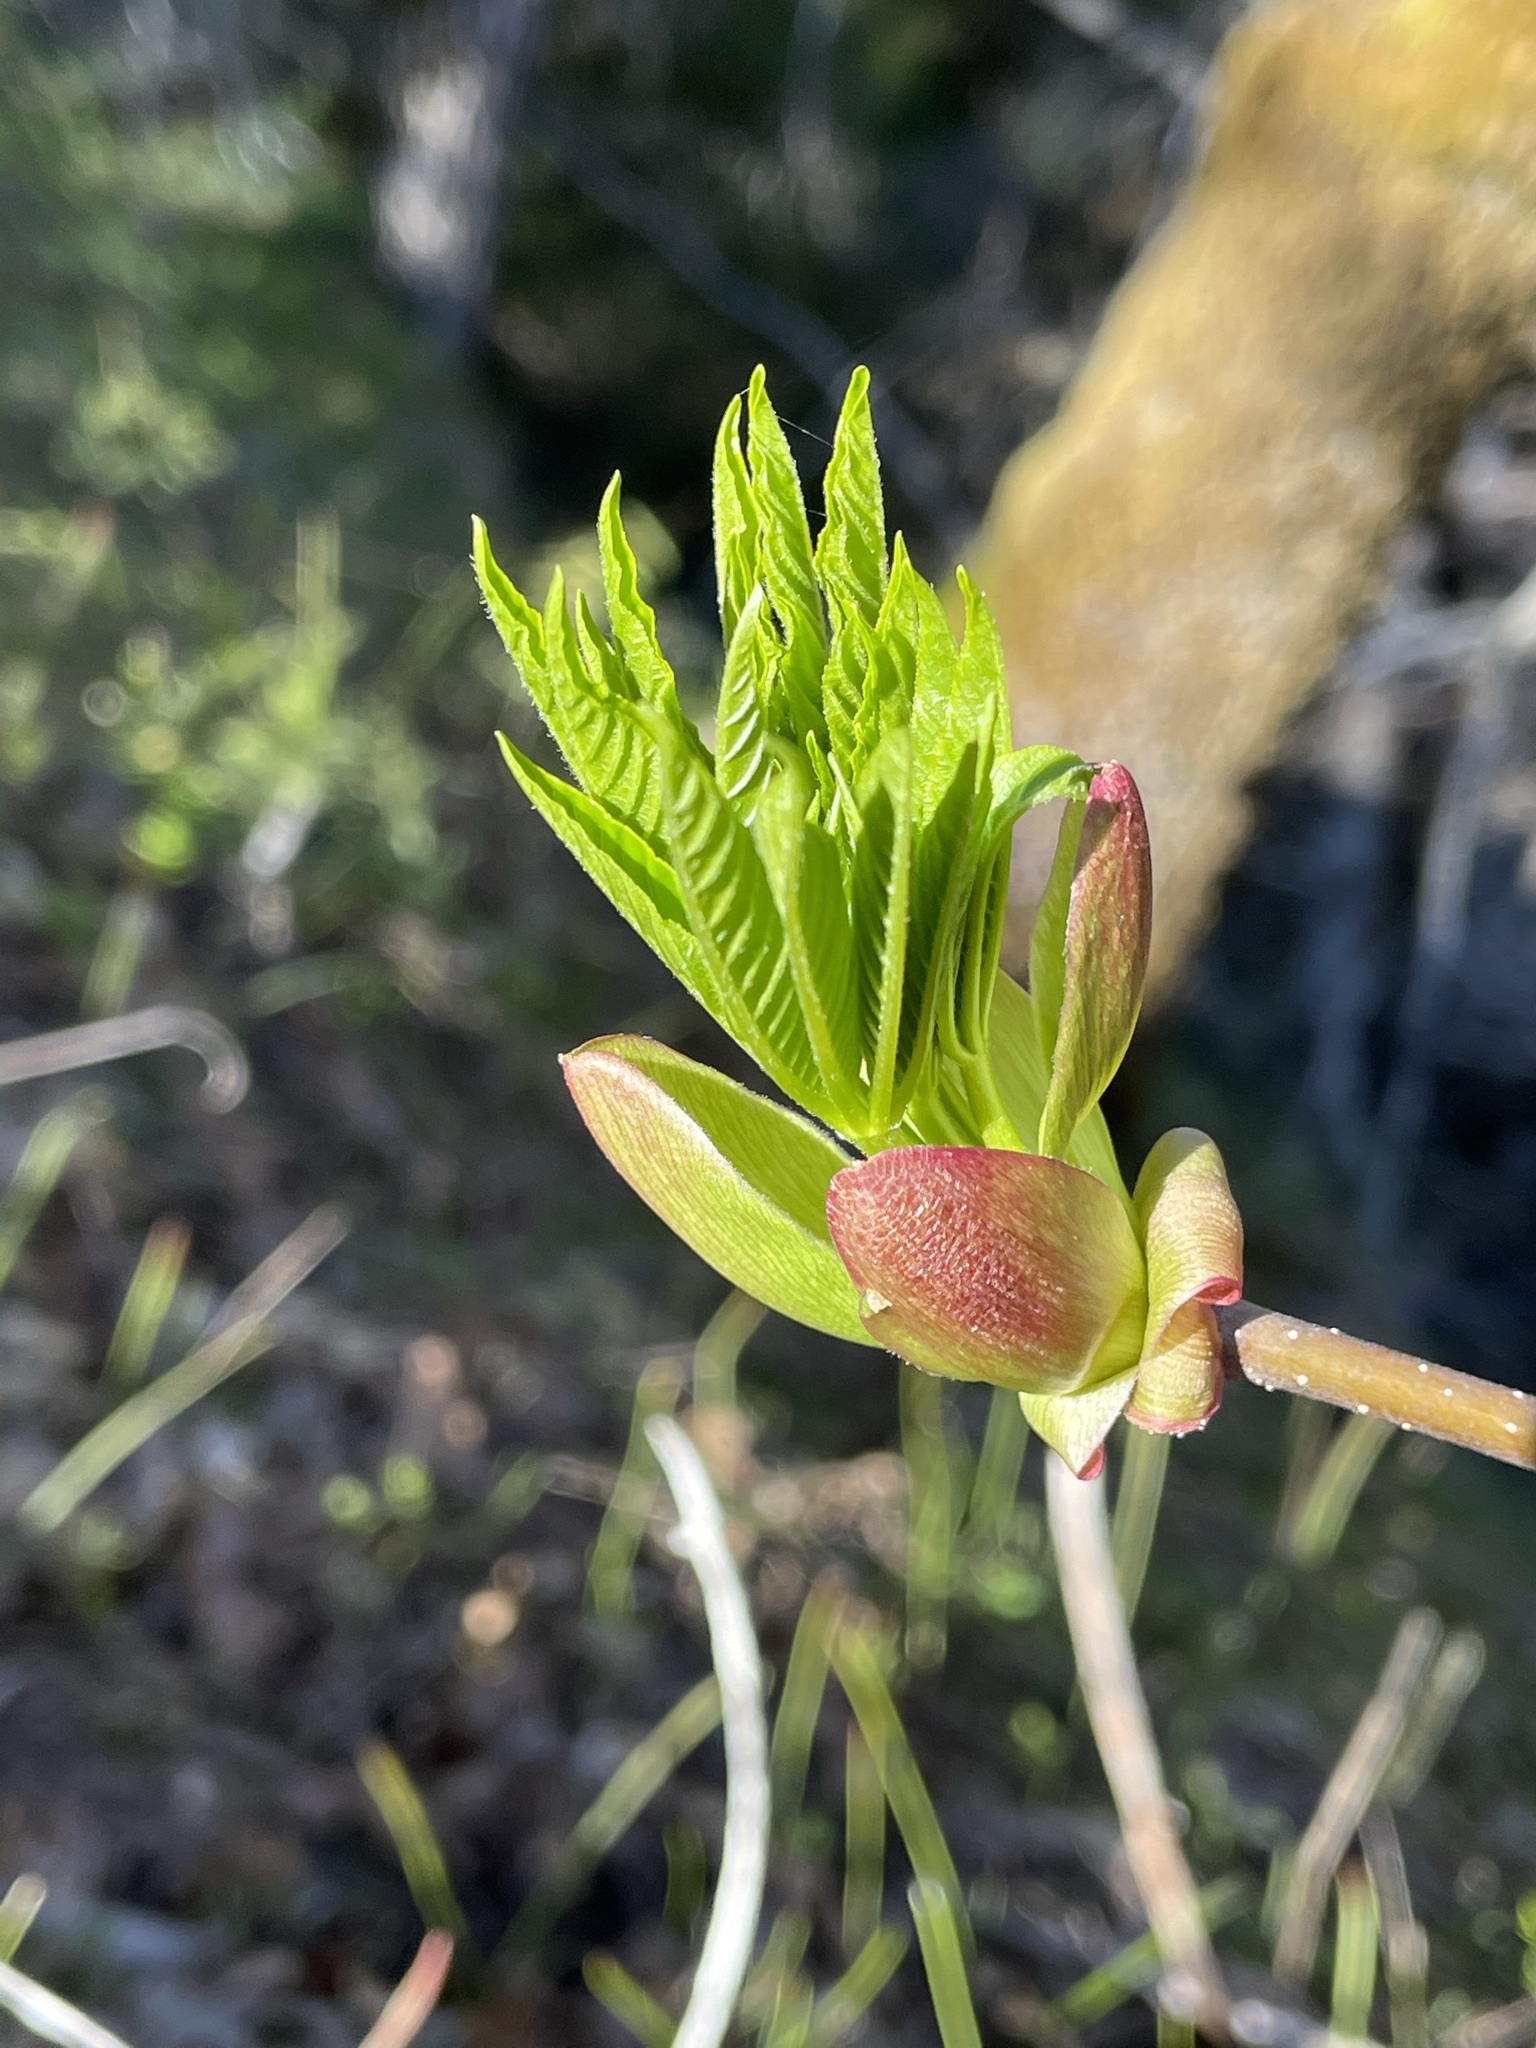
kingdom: Plantae
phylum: Tracheophyta
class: Magnoliopsida
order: Sapindales
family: Sapindaceae
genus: Aesculus
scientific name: Aesculus californica
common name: California buckeye
